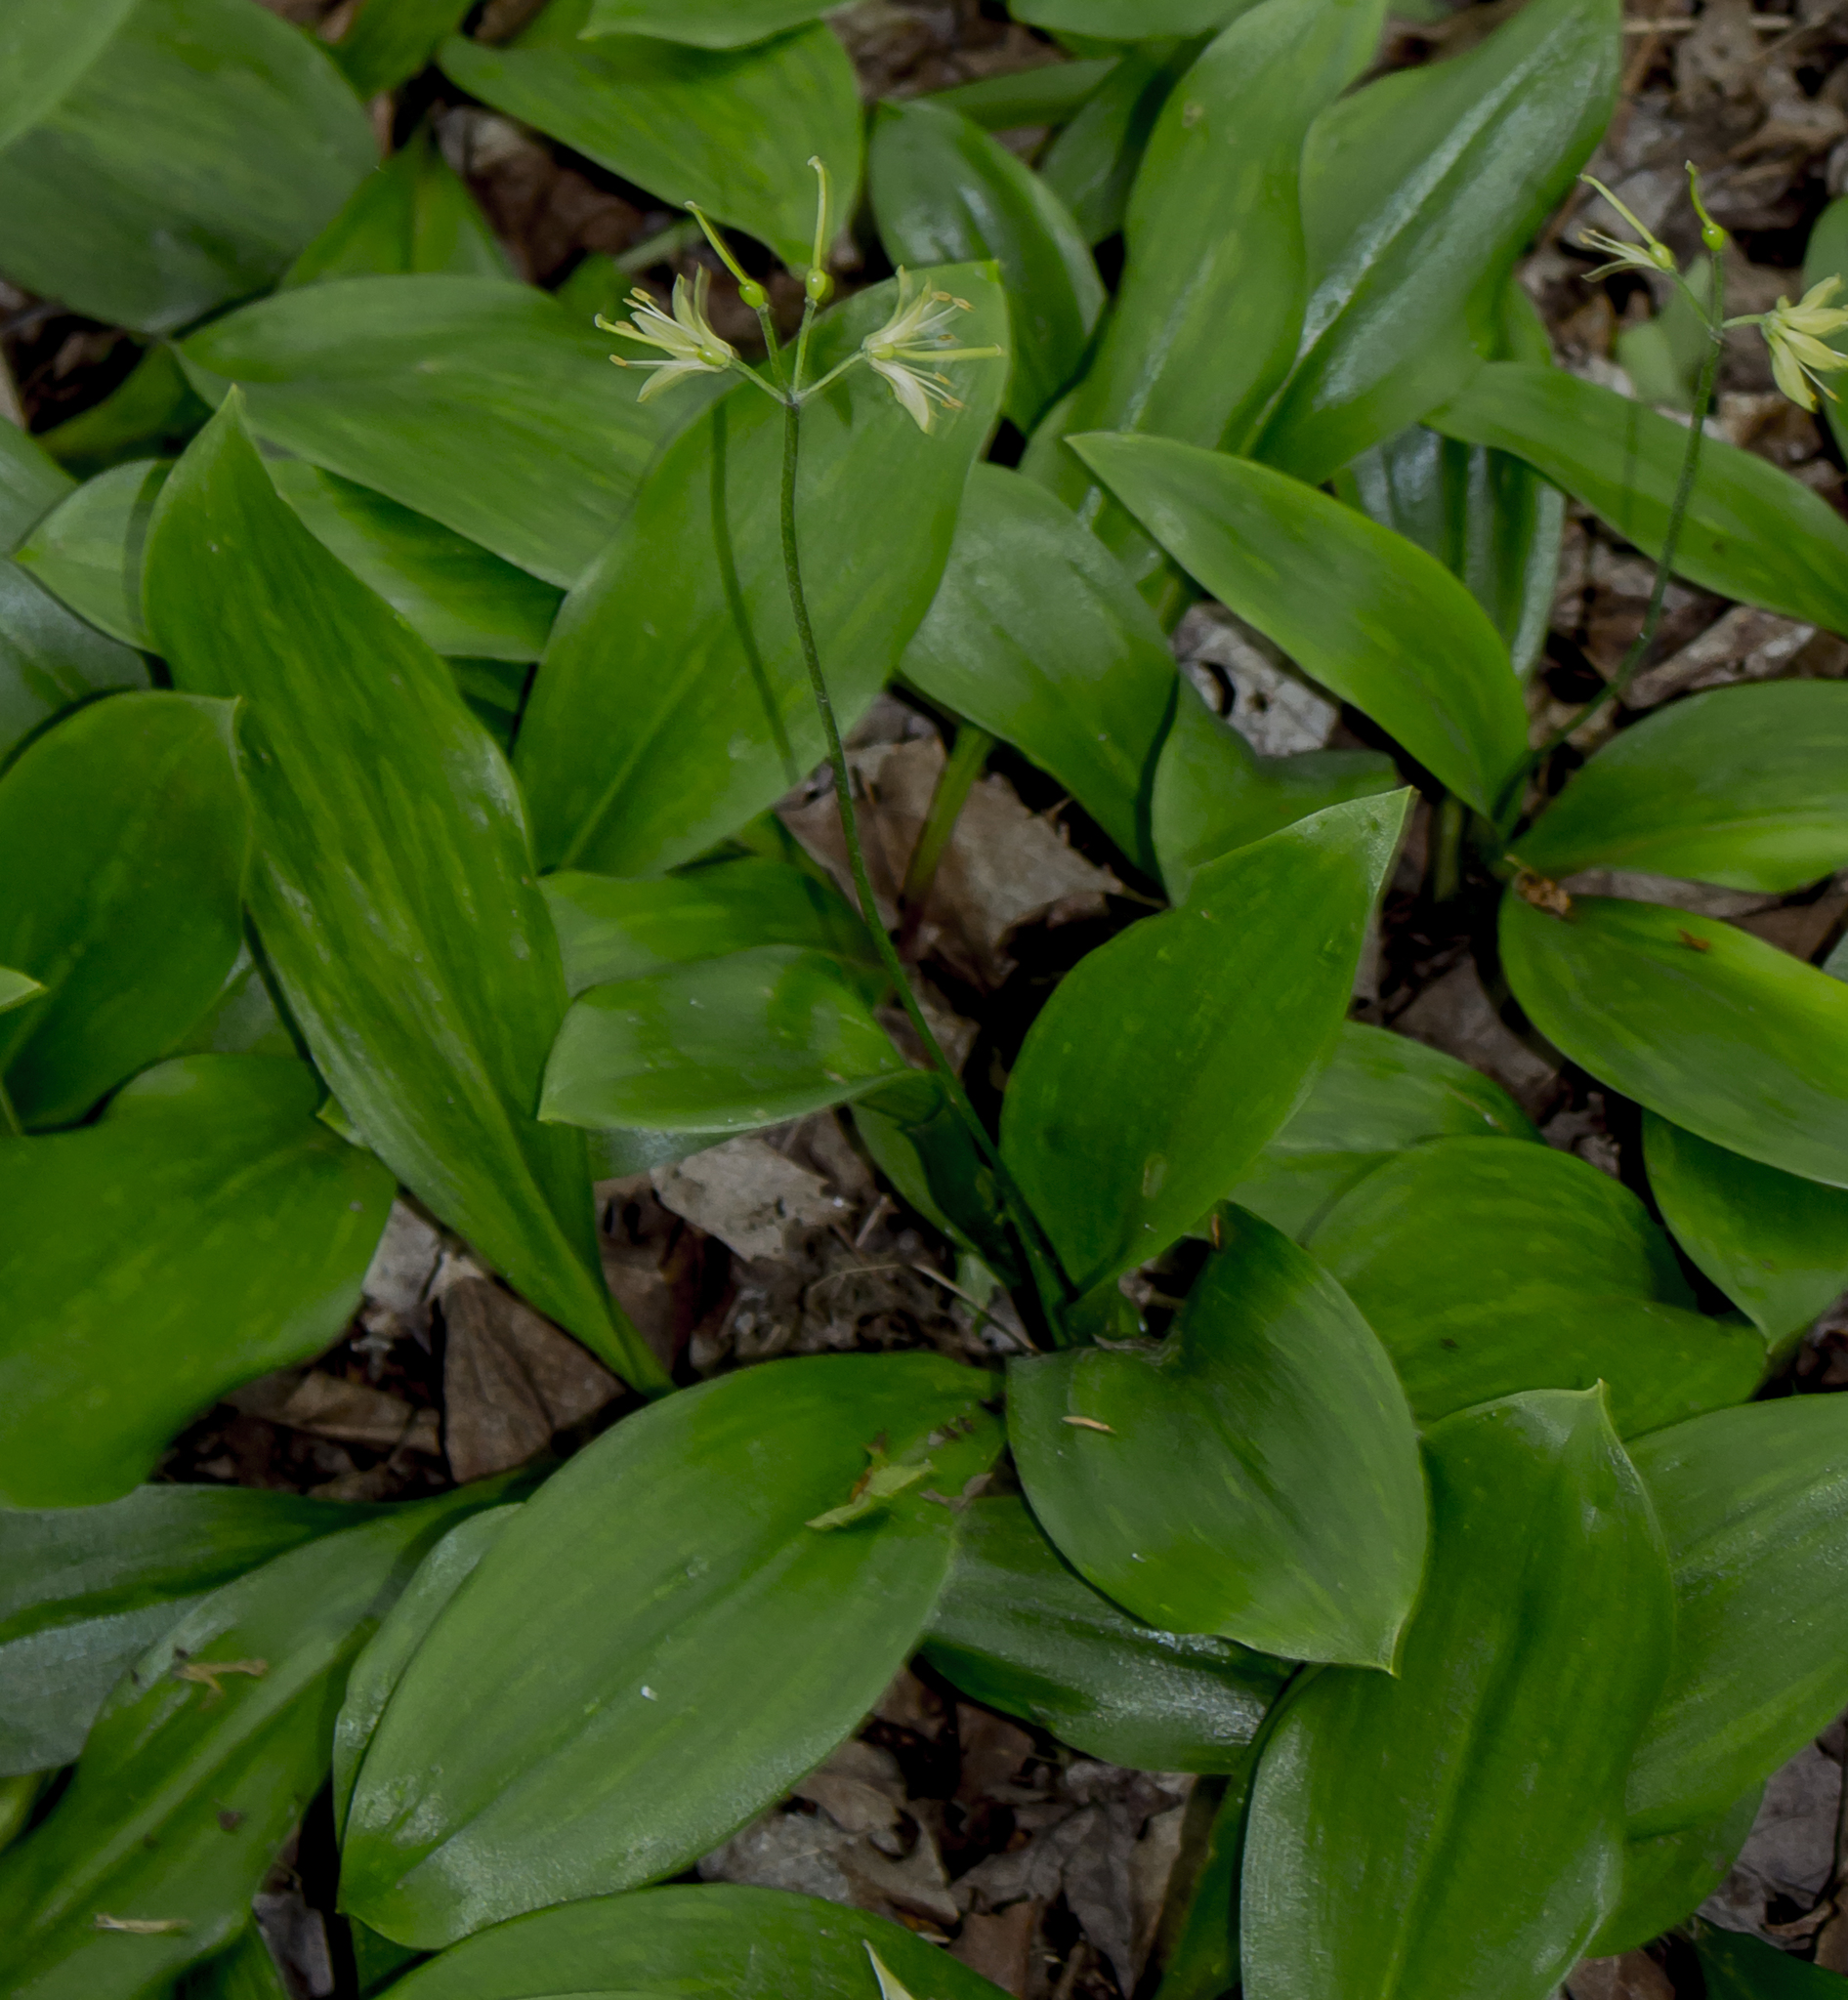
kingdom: Plantae
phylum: Tracheophyta
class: Liliopsida
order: Liliales
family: Liliaceae
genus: Clintonia
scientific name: Clintonia borealis
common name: Yellow clintonia
